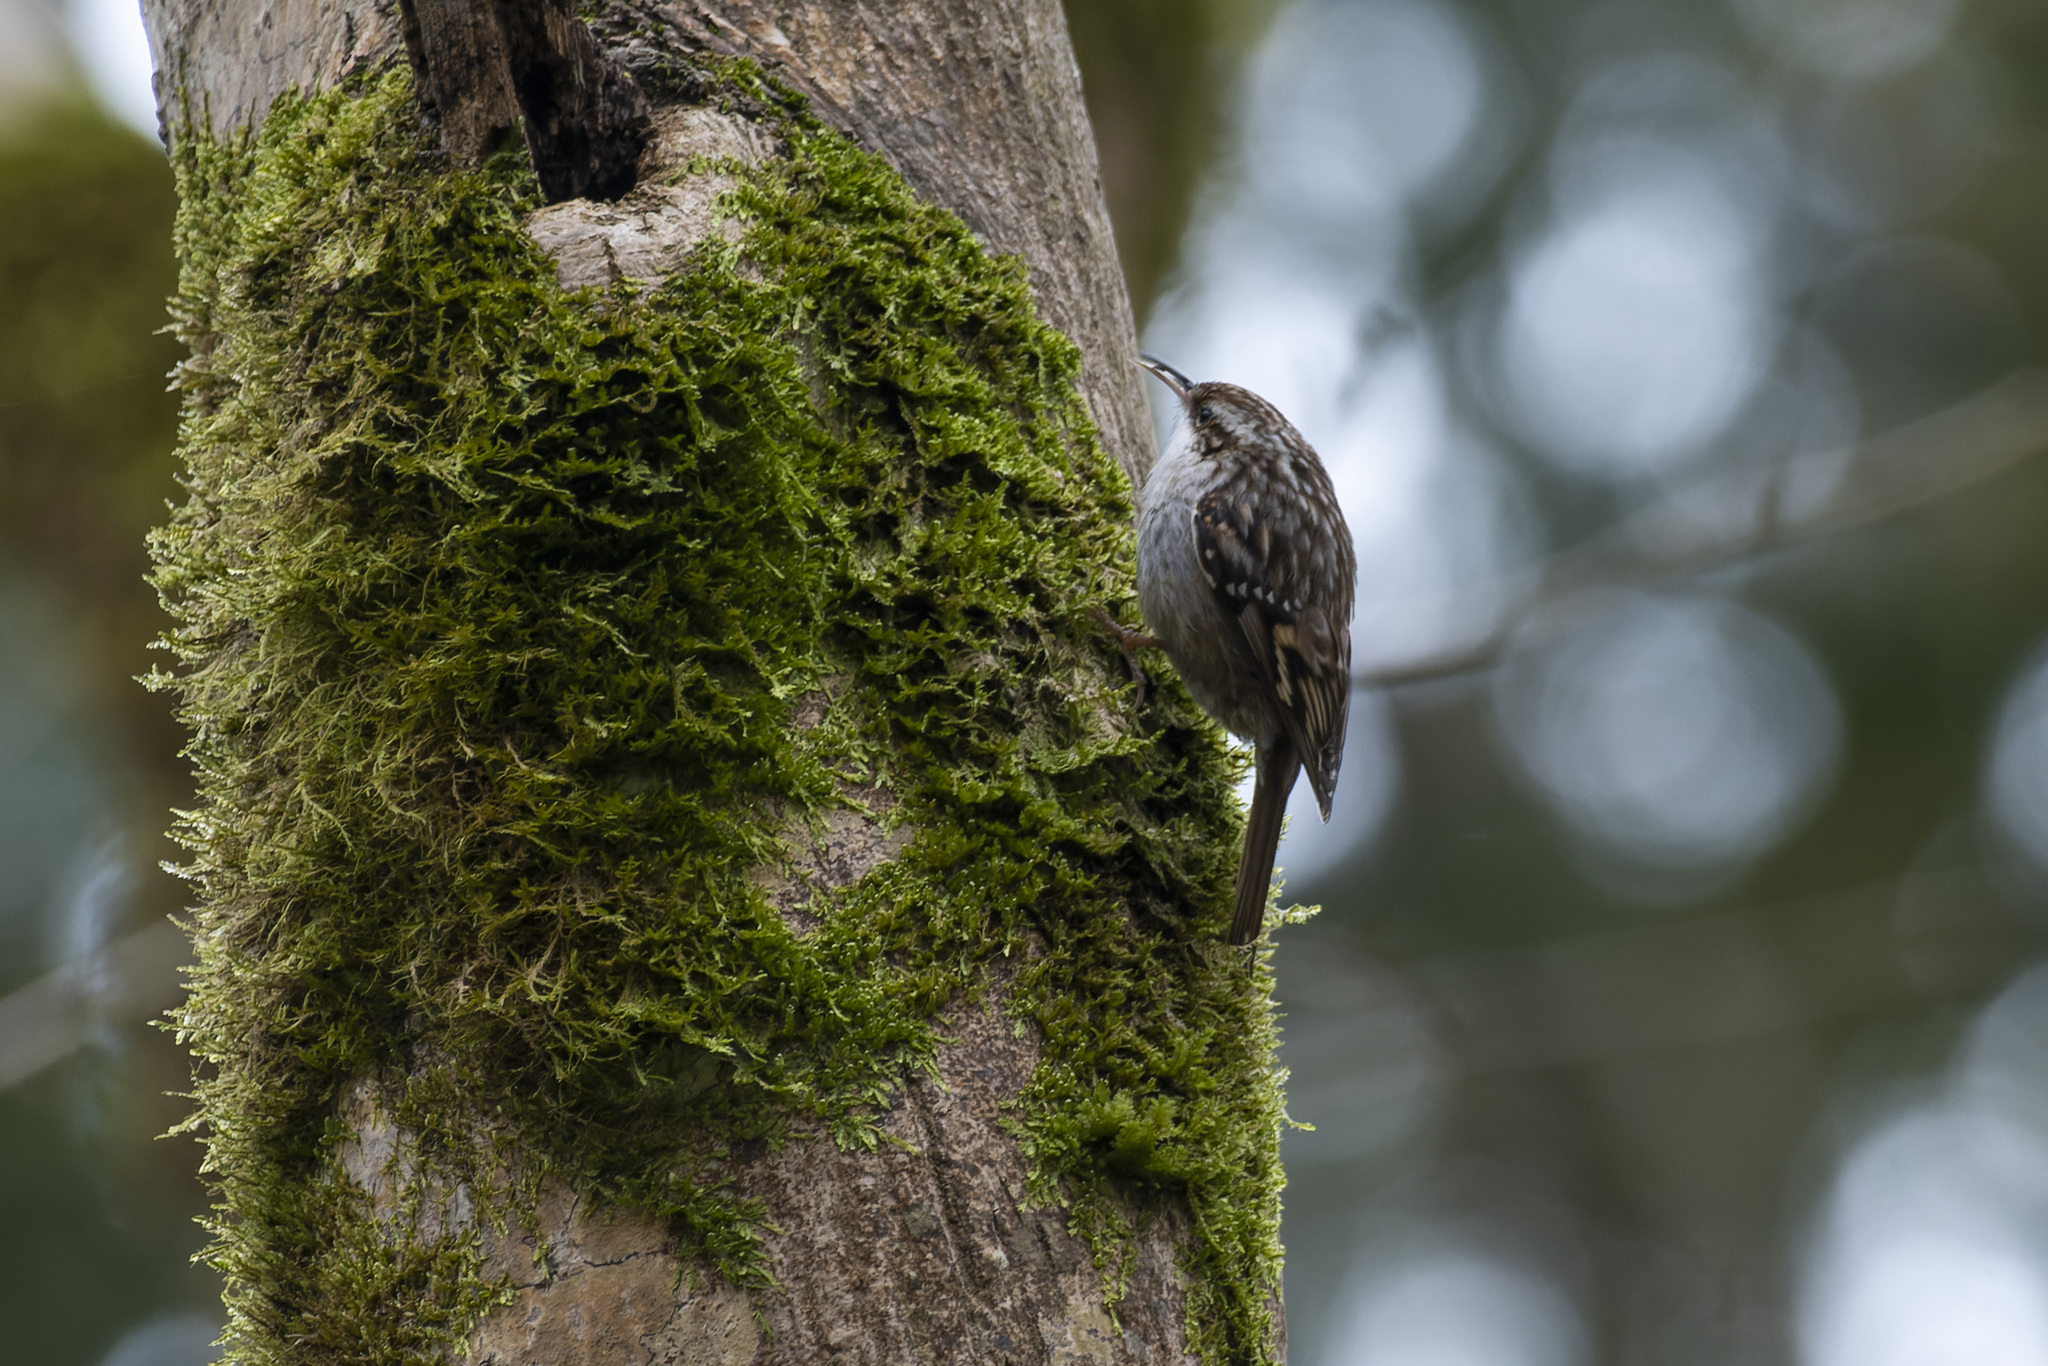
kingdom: Animalia
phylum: Chordata
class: Aves
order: Passeriformes
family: Certhiidae
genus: Certhia
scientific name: Certhia brachydactyla
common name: Short-toed treecreeper
